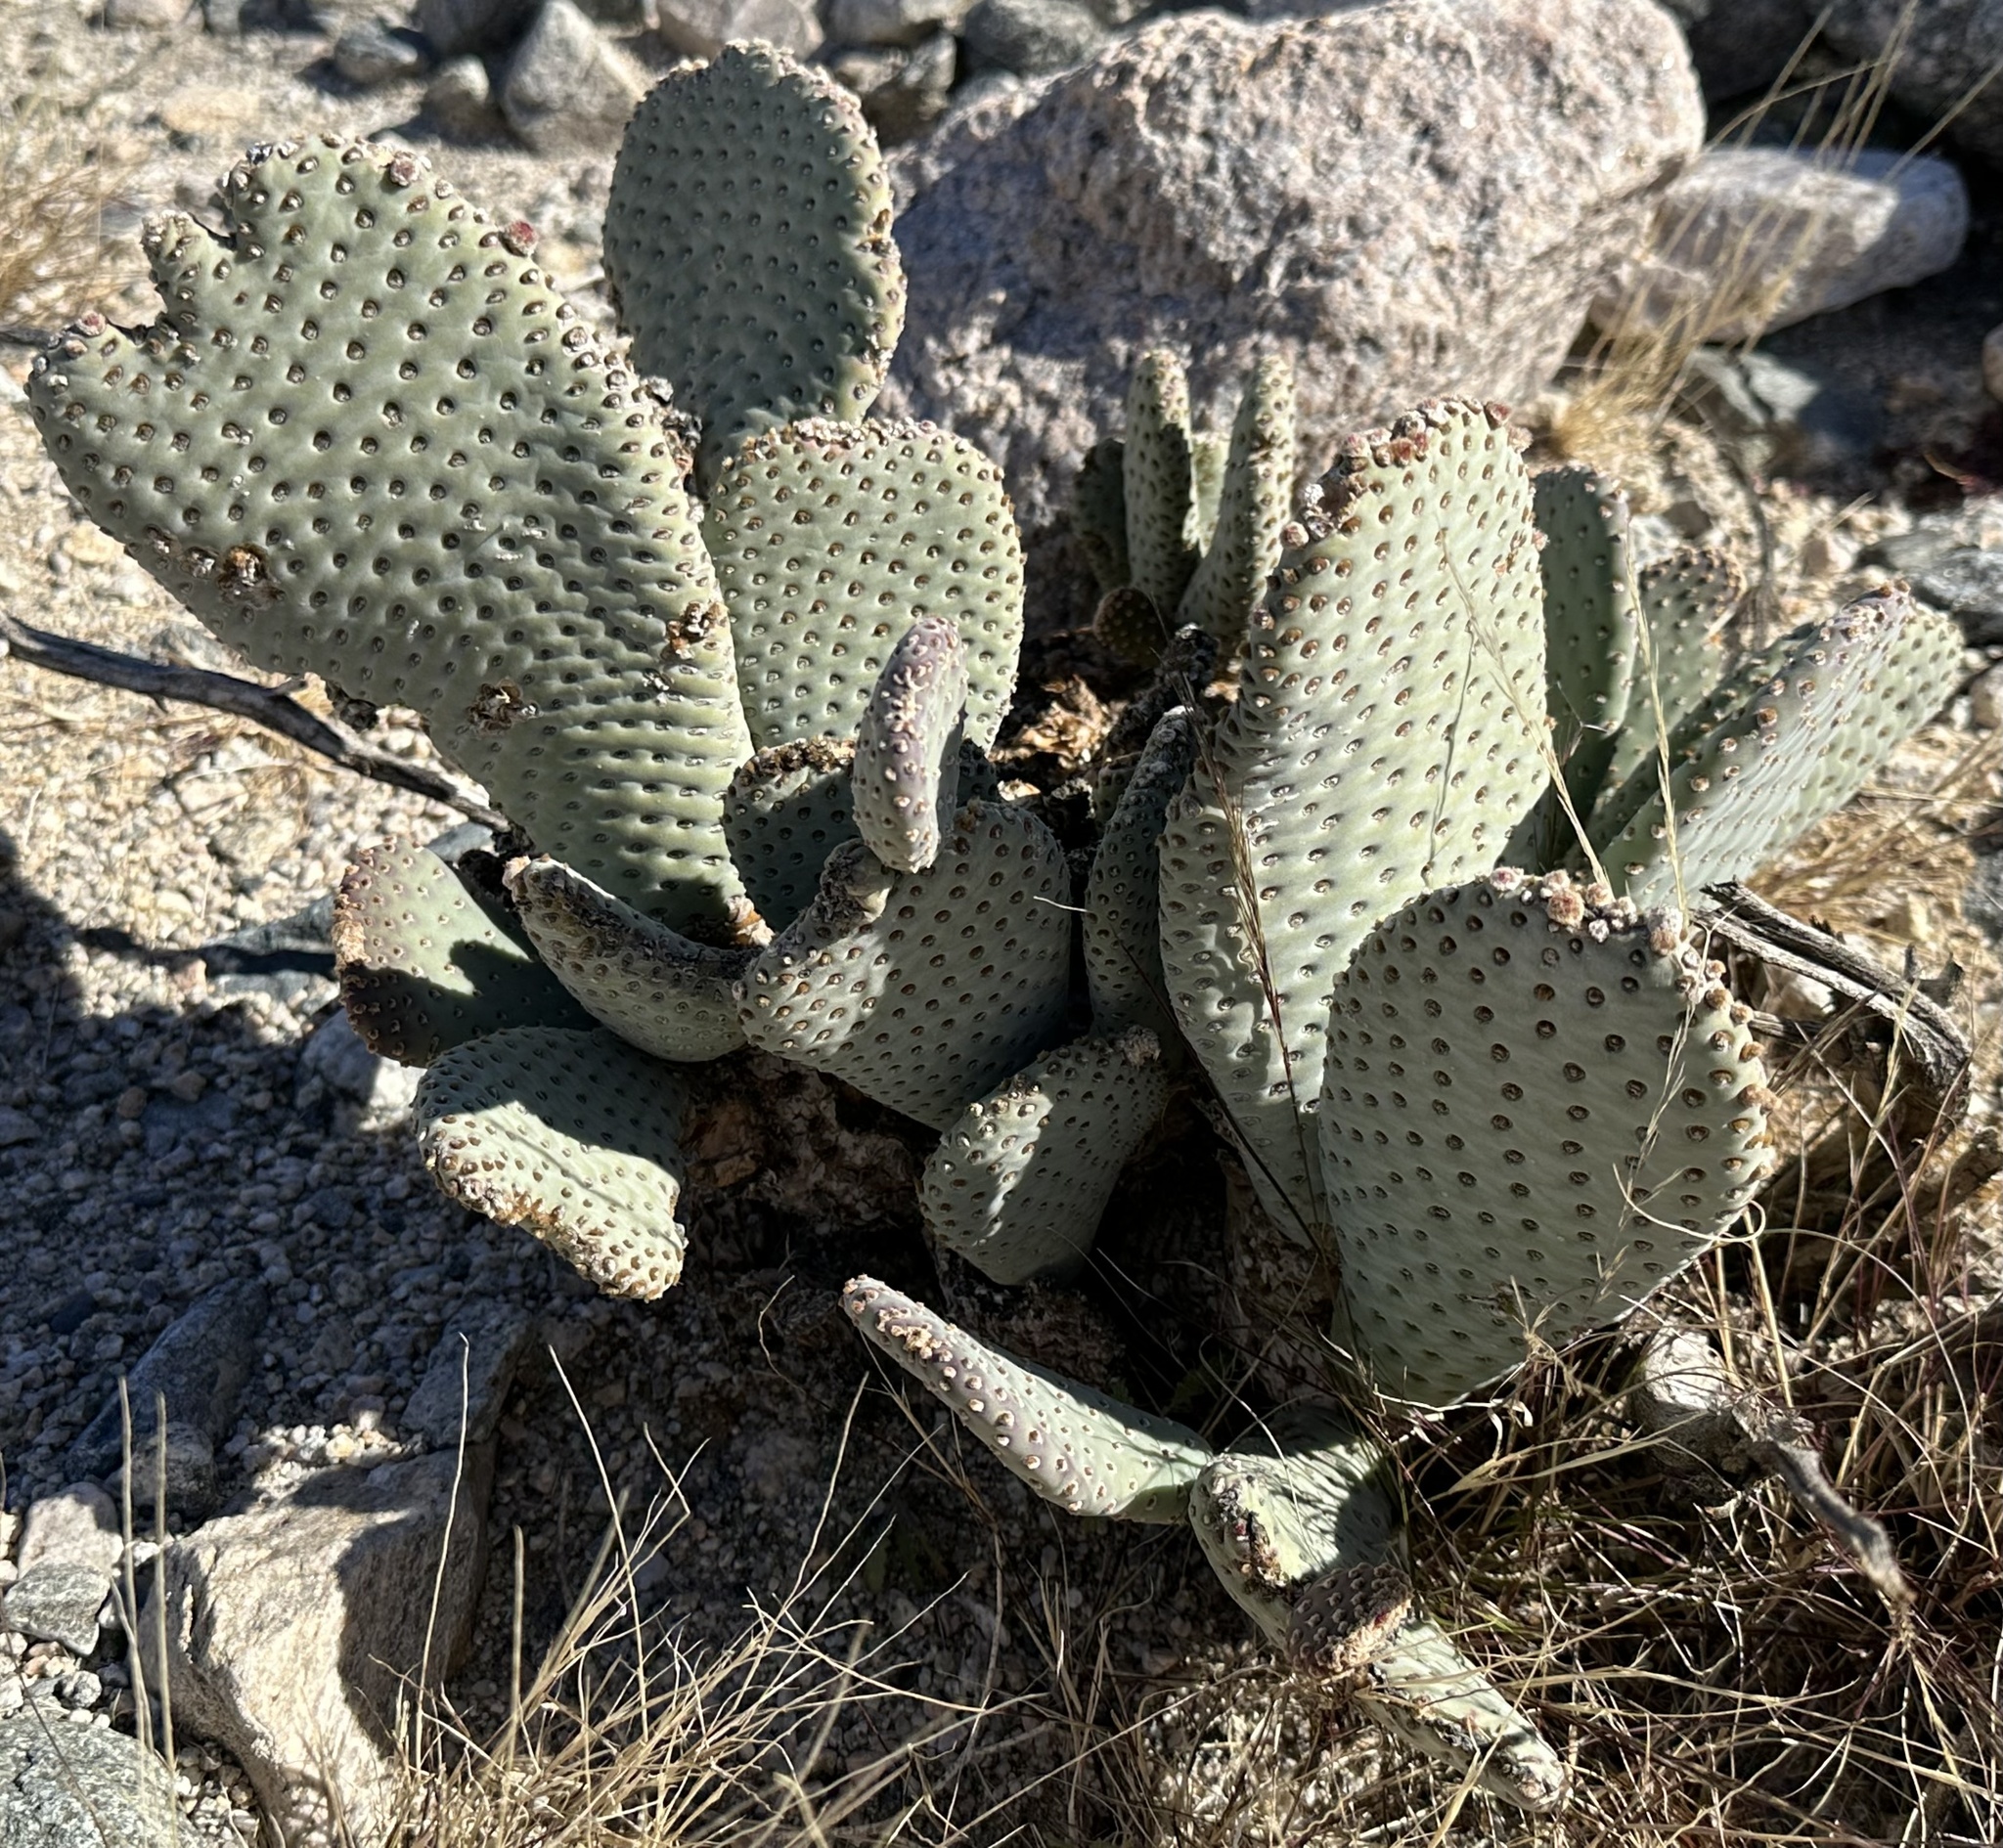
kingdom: Plantae
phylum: Tracheophyta
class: Magnoliopsida
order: Caryophyllales
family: Cactaceae
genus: Opuntia
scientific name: Opuntia basilaris
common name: Beavertail prickly-pear
